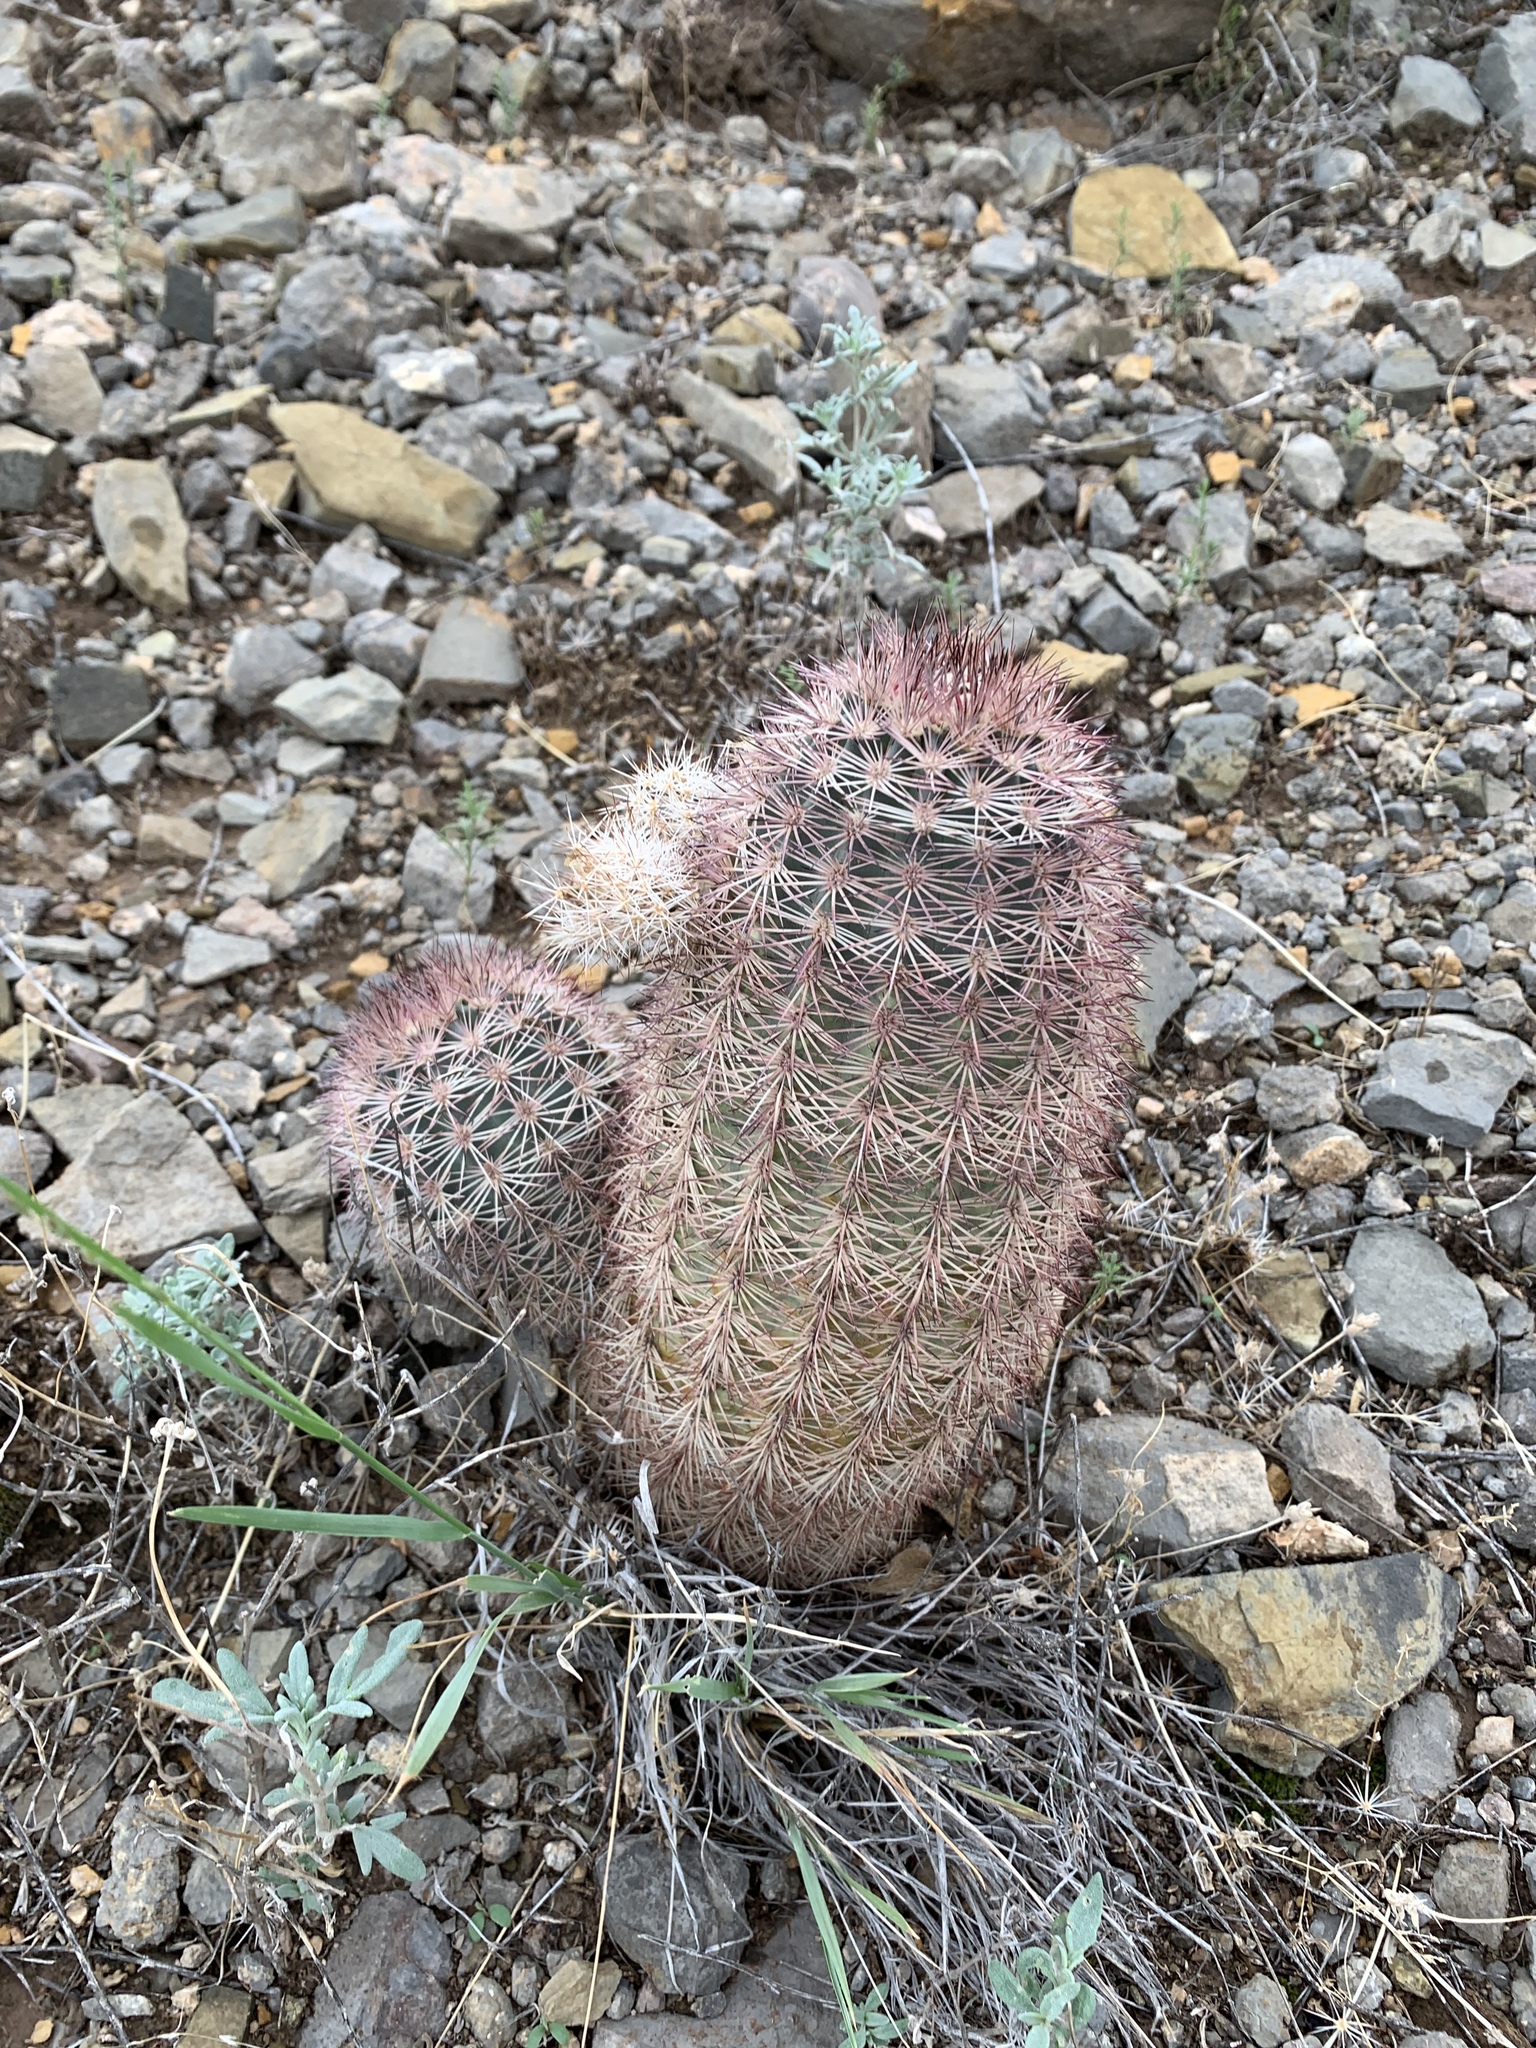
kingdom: Plantae
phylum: Tracheophyta
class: Magnoliopsida
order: Caryophyllales
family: Cactaceae
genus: Echinocereus
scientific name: Echinocereus dasyacanthus
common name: Spiny hedgehog cactus
